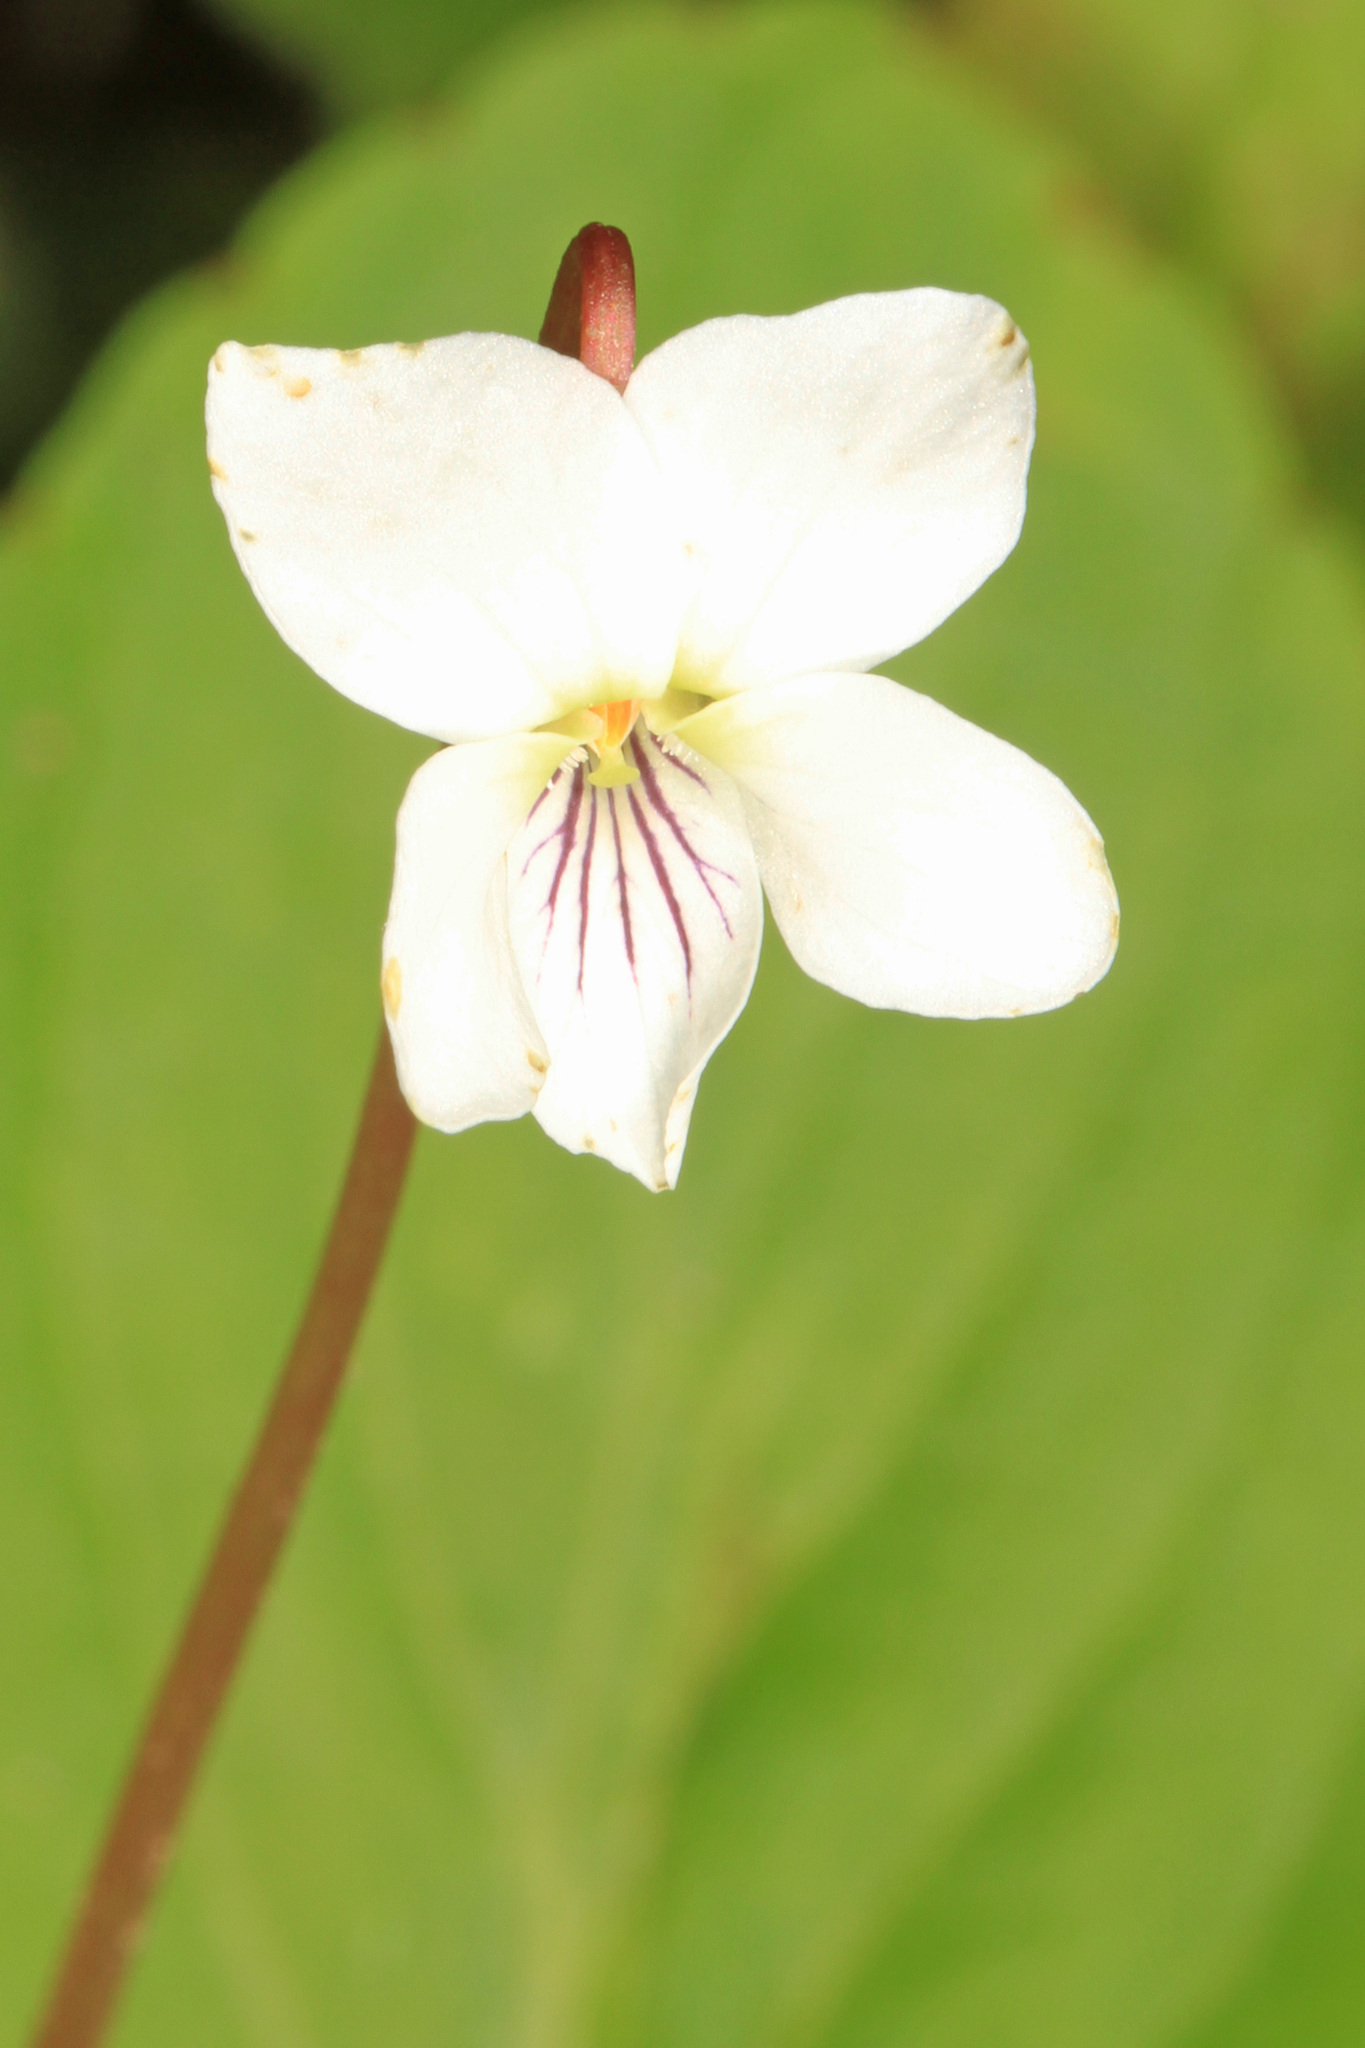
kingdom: Plantae
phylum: Tracheophyta
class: Magnoliopsida
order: Malpighiales
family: Violaceae
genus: Viola
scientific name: Viola blanda
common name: Sweet white violet
